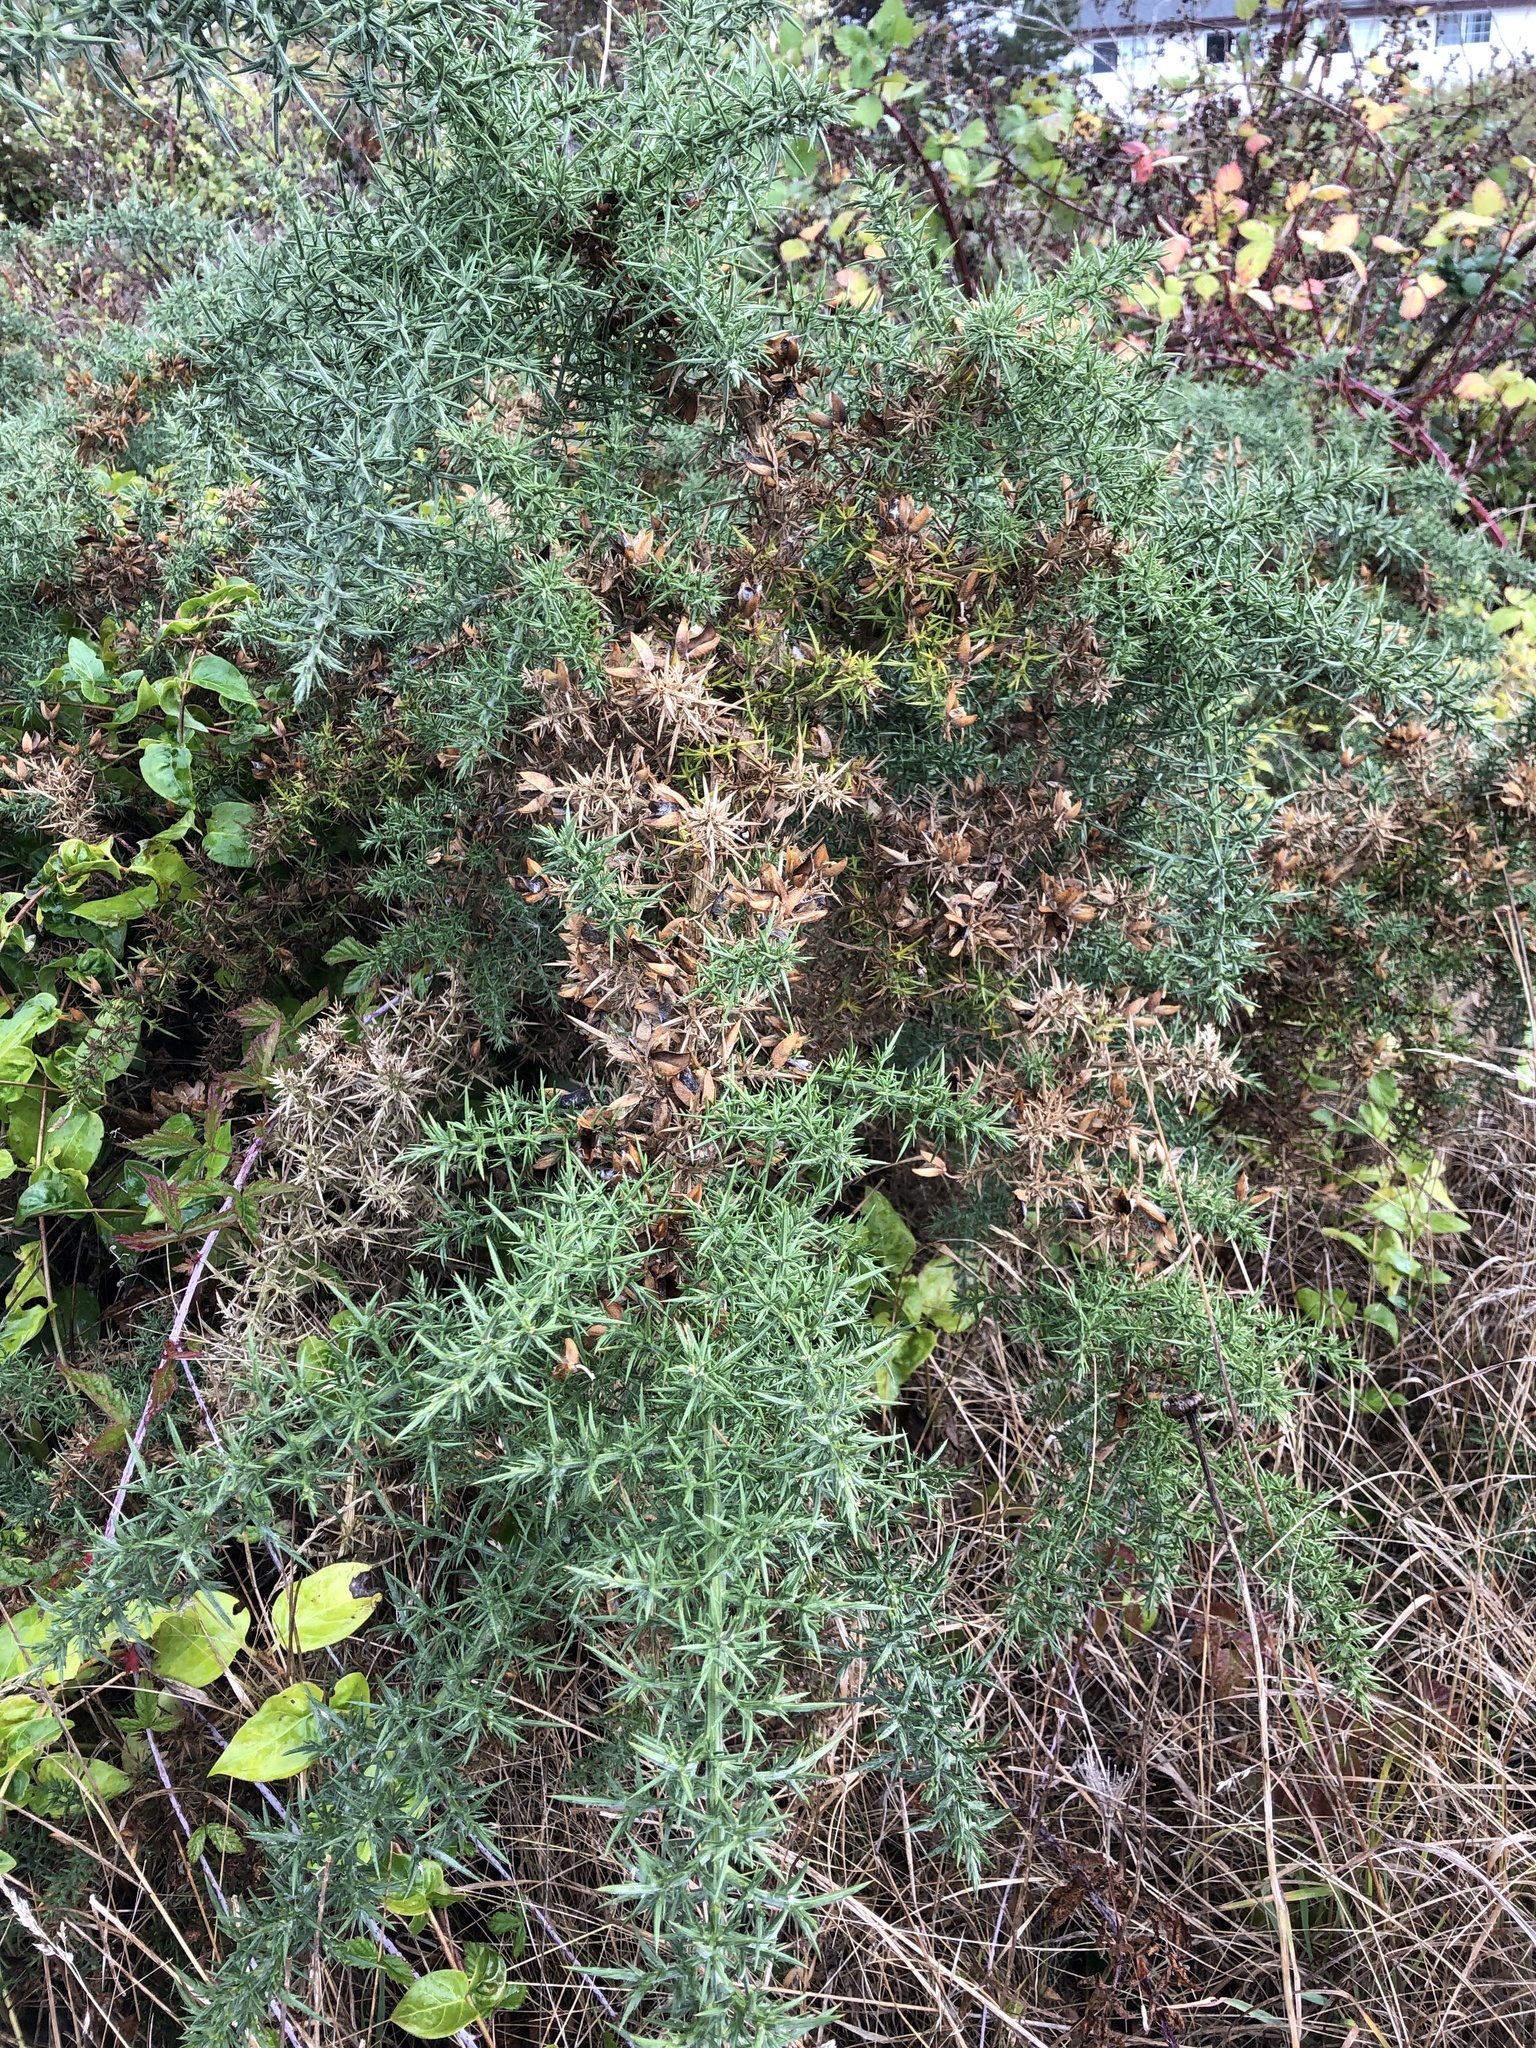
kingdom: Plantae
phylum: Tracheophyta
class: Magnoliopsida
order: Fabales
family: Fabaceae
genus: Ulex
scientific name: Ulex europaeus
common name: Common gorse
